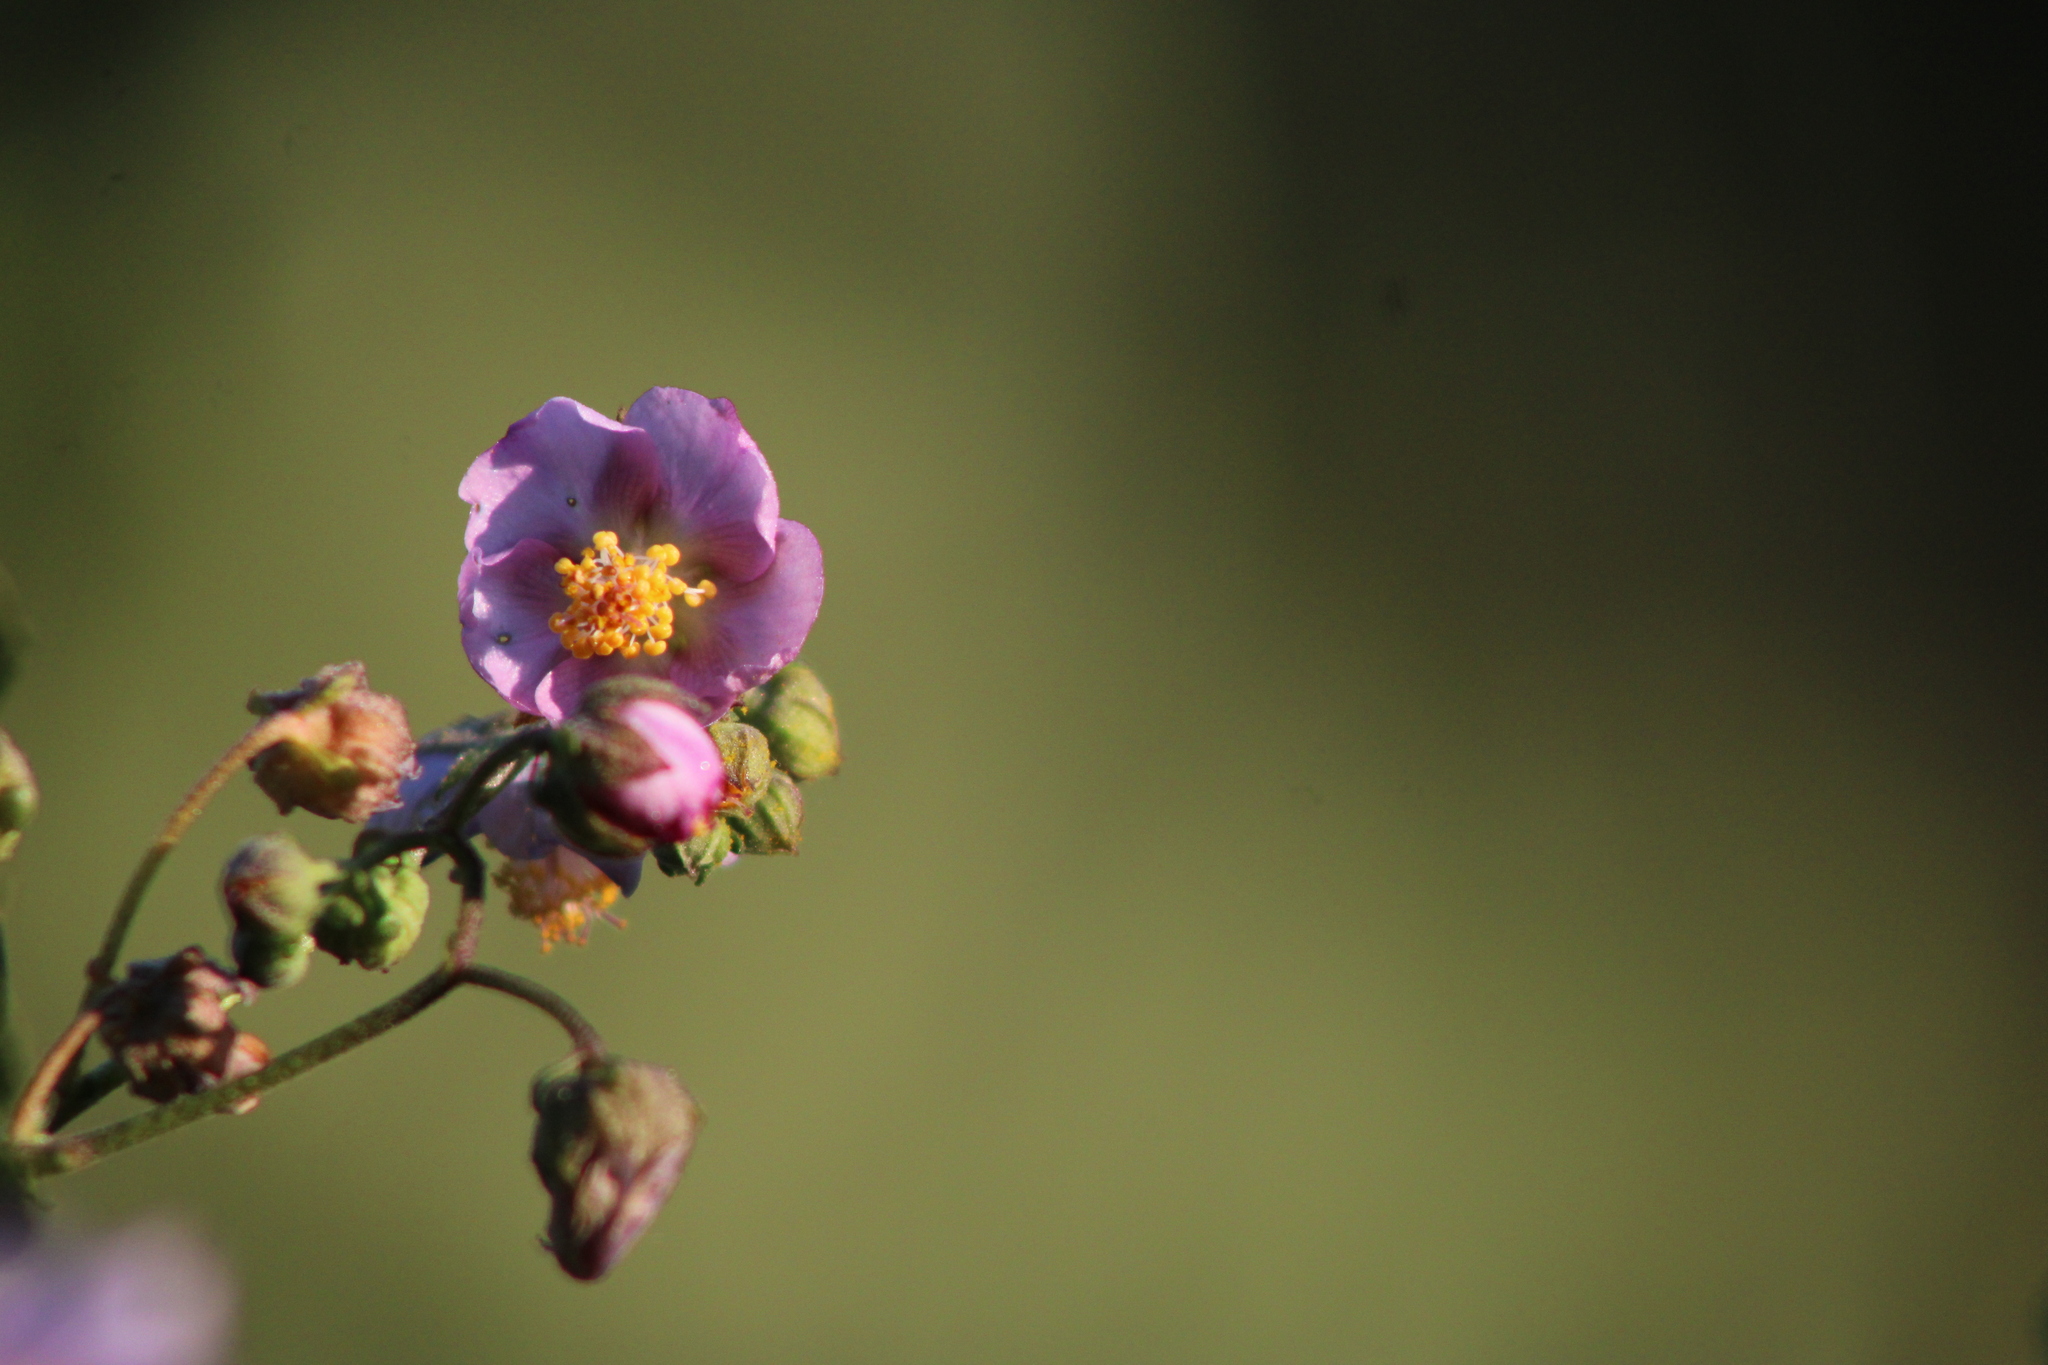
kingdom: Plantae
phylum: Tracheophyta
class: Magnoliopsida
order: Malvales
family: Malvaceae
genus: Monteiroa
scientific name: Monteiroa glomerata
